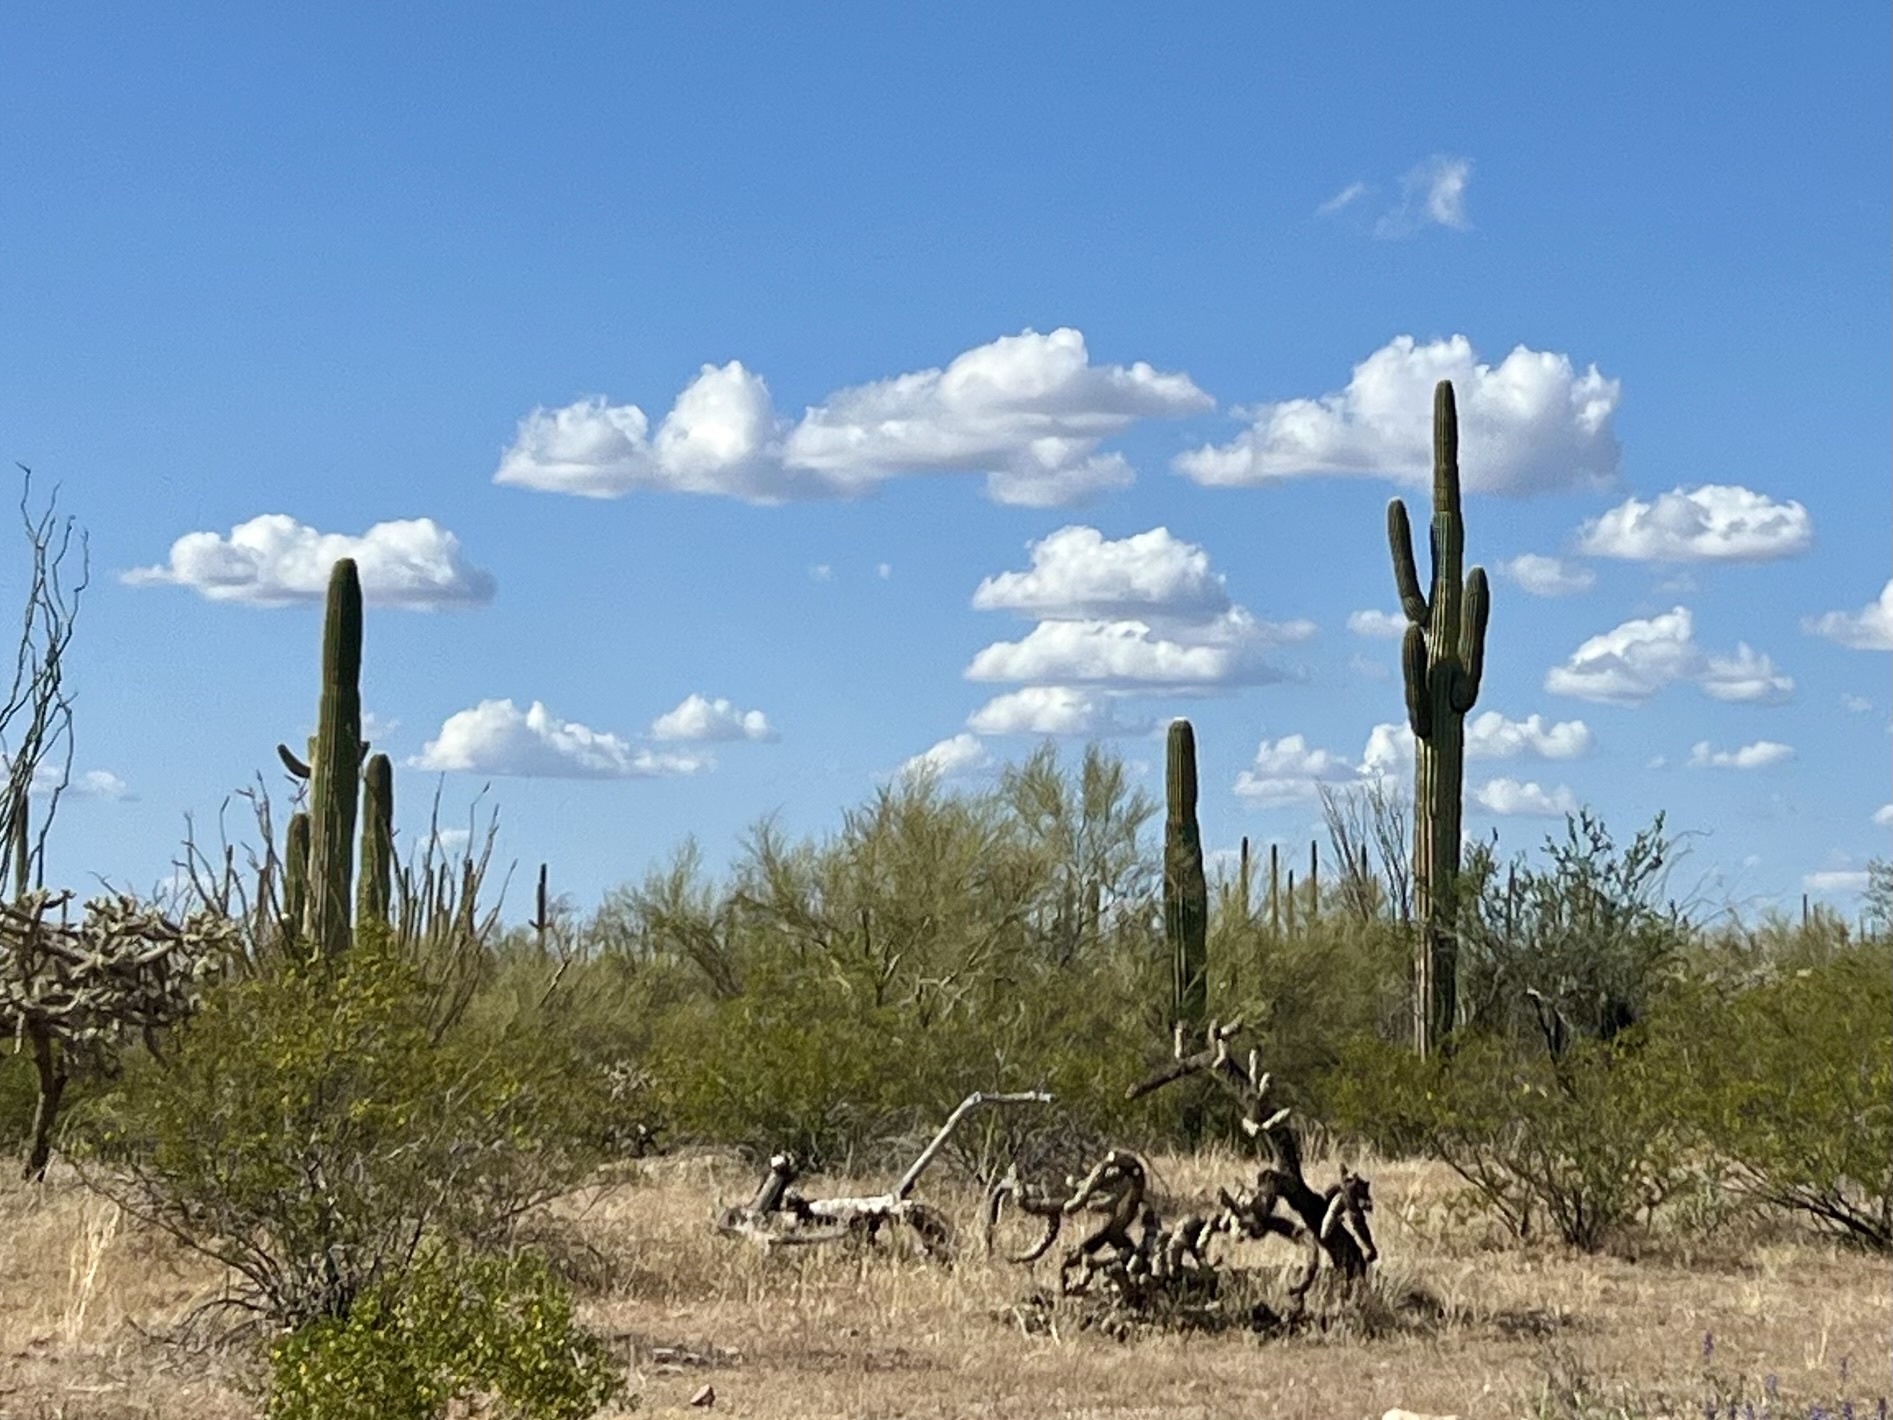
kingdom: Plantae
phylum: Tracheophyta
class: Magnoliopsida
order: Caryophyllales
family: Cactaceae
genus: Carnegiea
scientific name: Carnegiea gigantea
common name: Saguaro
